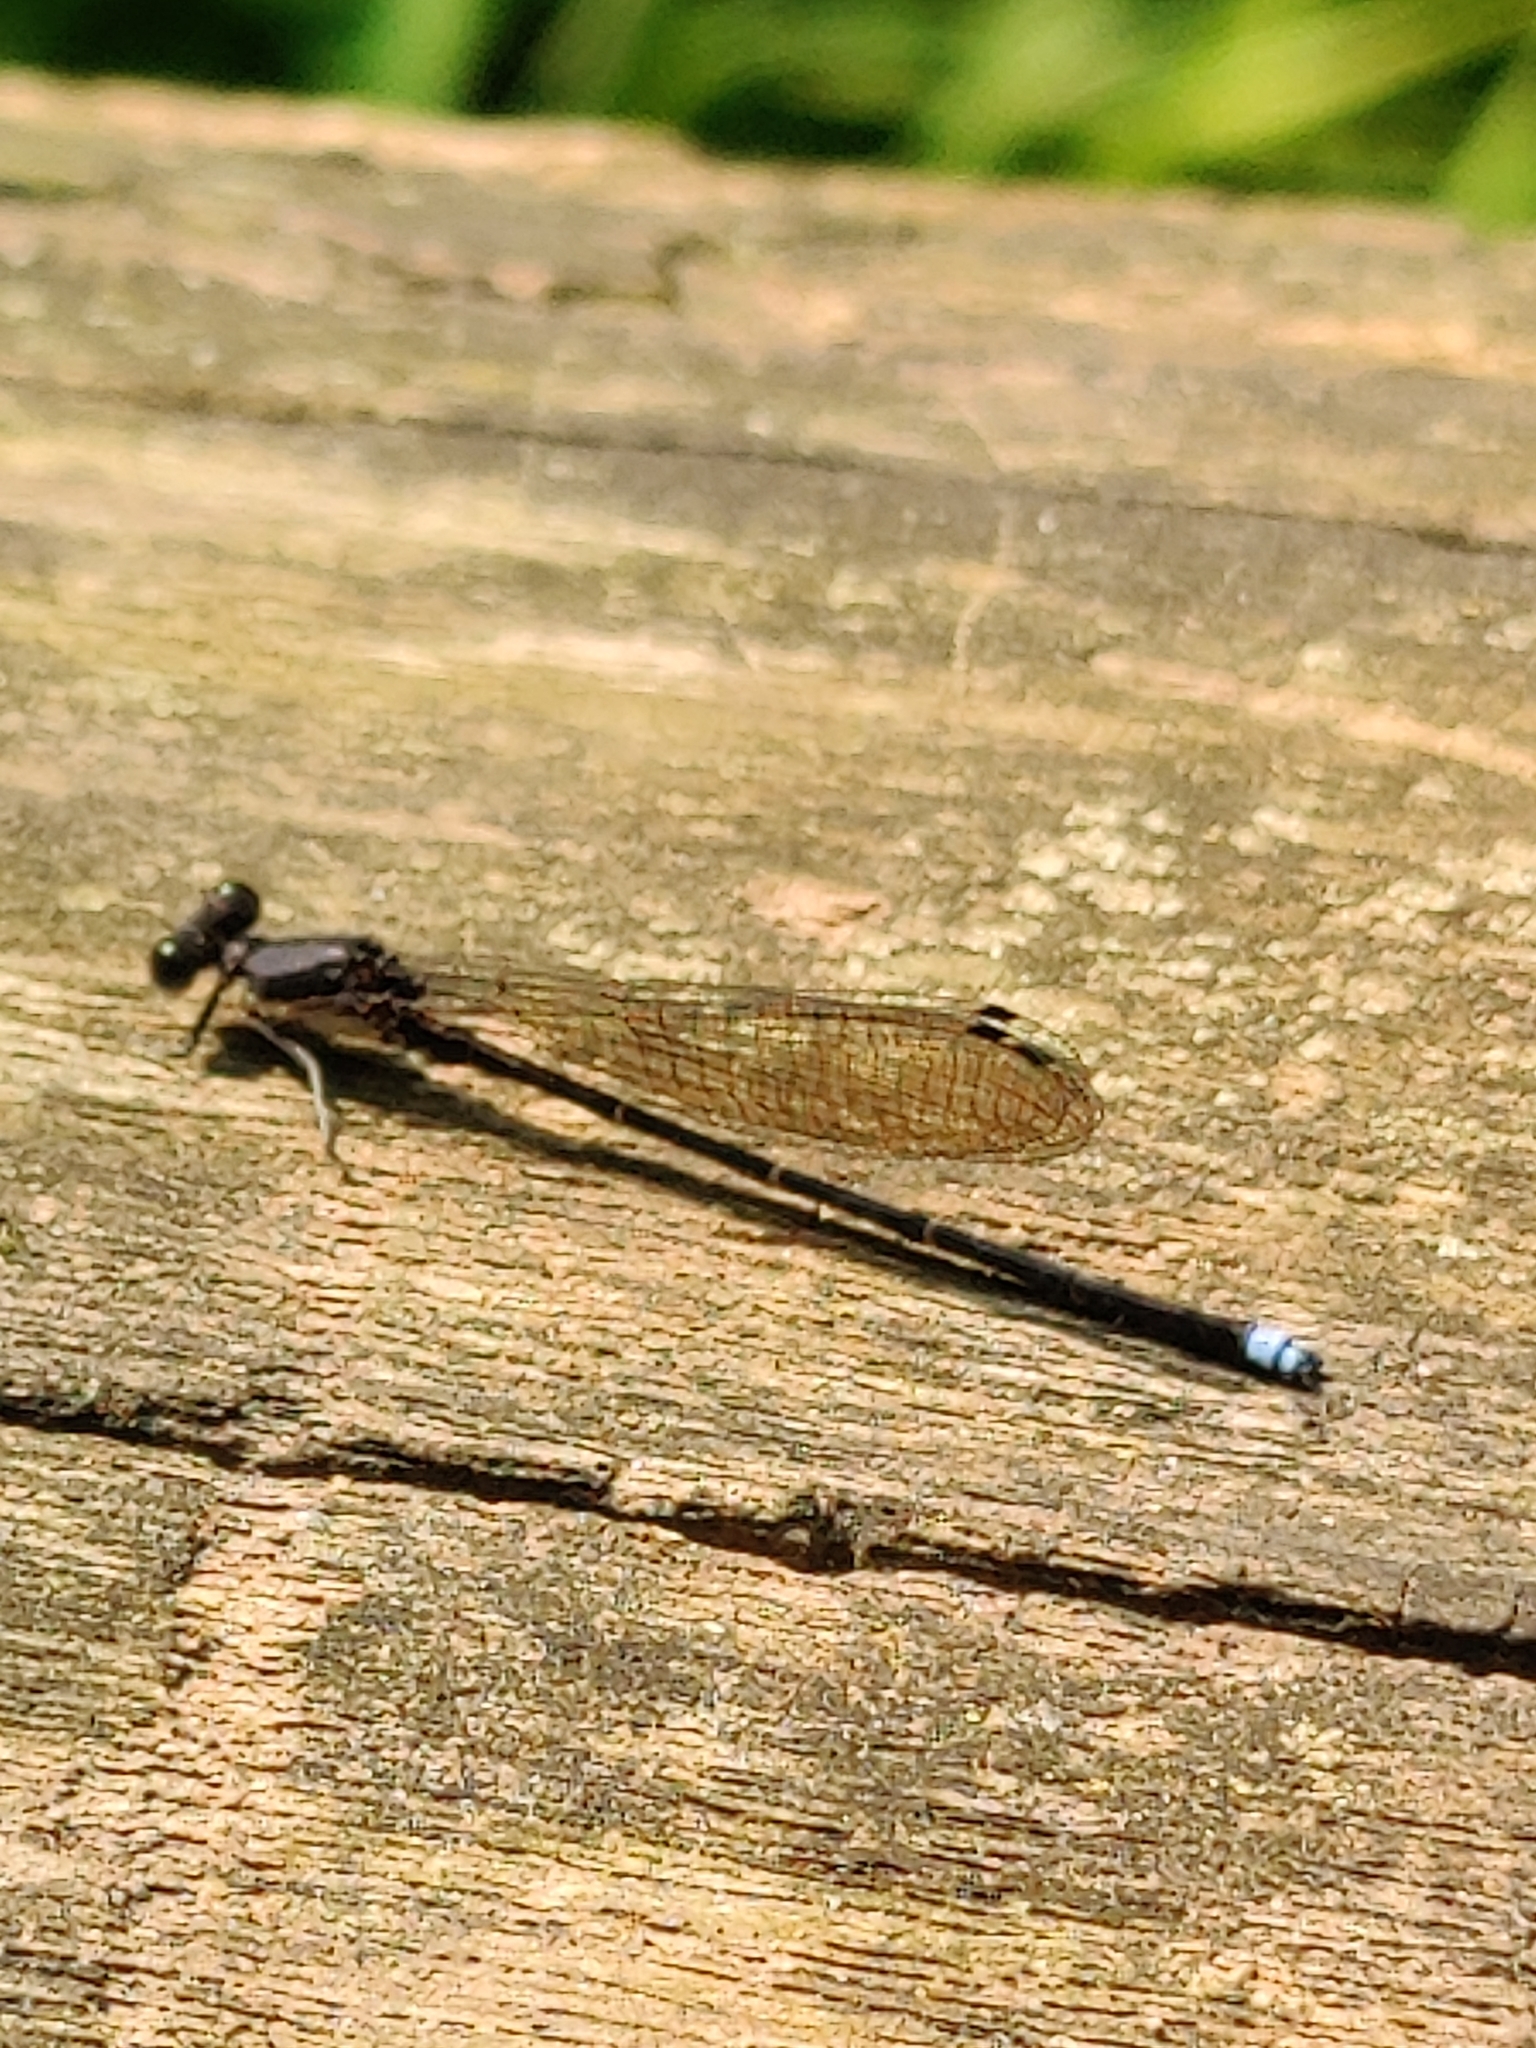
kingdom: Animalia
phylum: Arthropoda
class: Insecta
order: Odonata
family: Coenagrionidae
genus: Argia
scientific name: Argia tibialis
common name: Blue-tipped dancer
